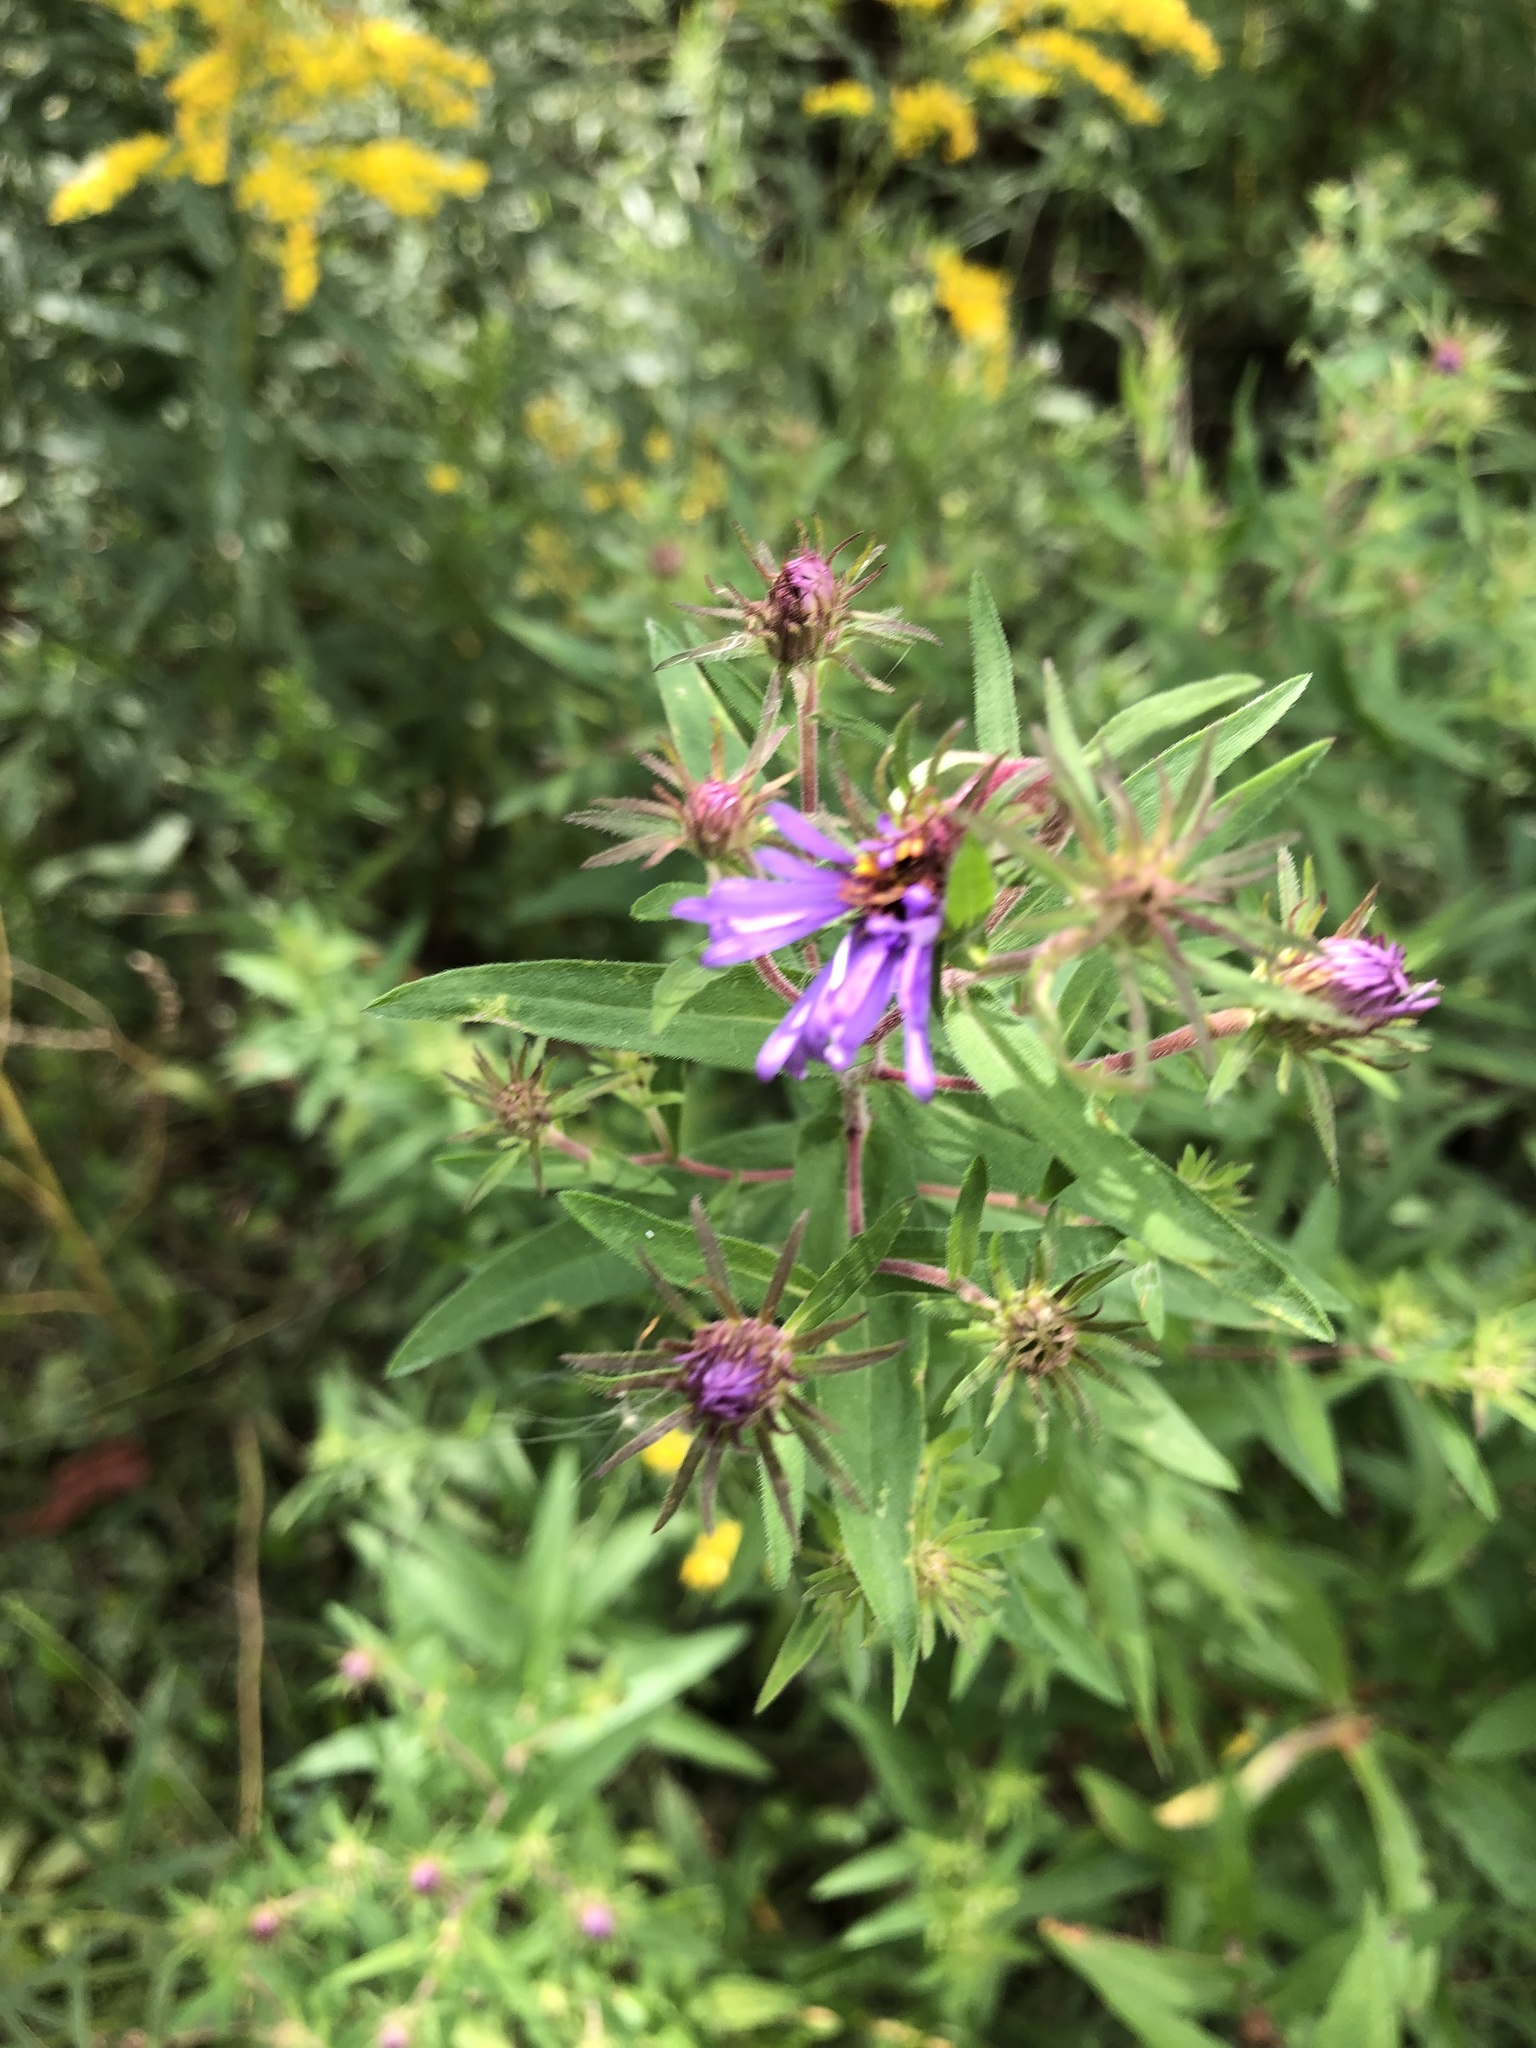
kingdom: Plantae
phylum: Tracheophyta
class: Magnoliopsida
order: Asterales
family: Asteraceae
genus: Symphyotrichum
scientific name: Symphyotrichum novae-angliae
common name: Michaelmas daisy
